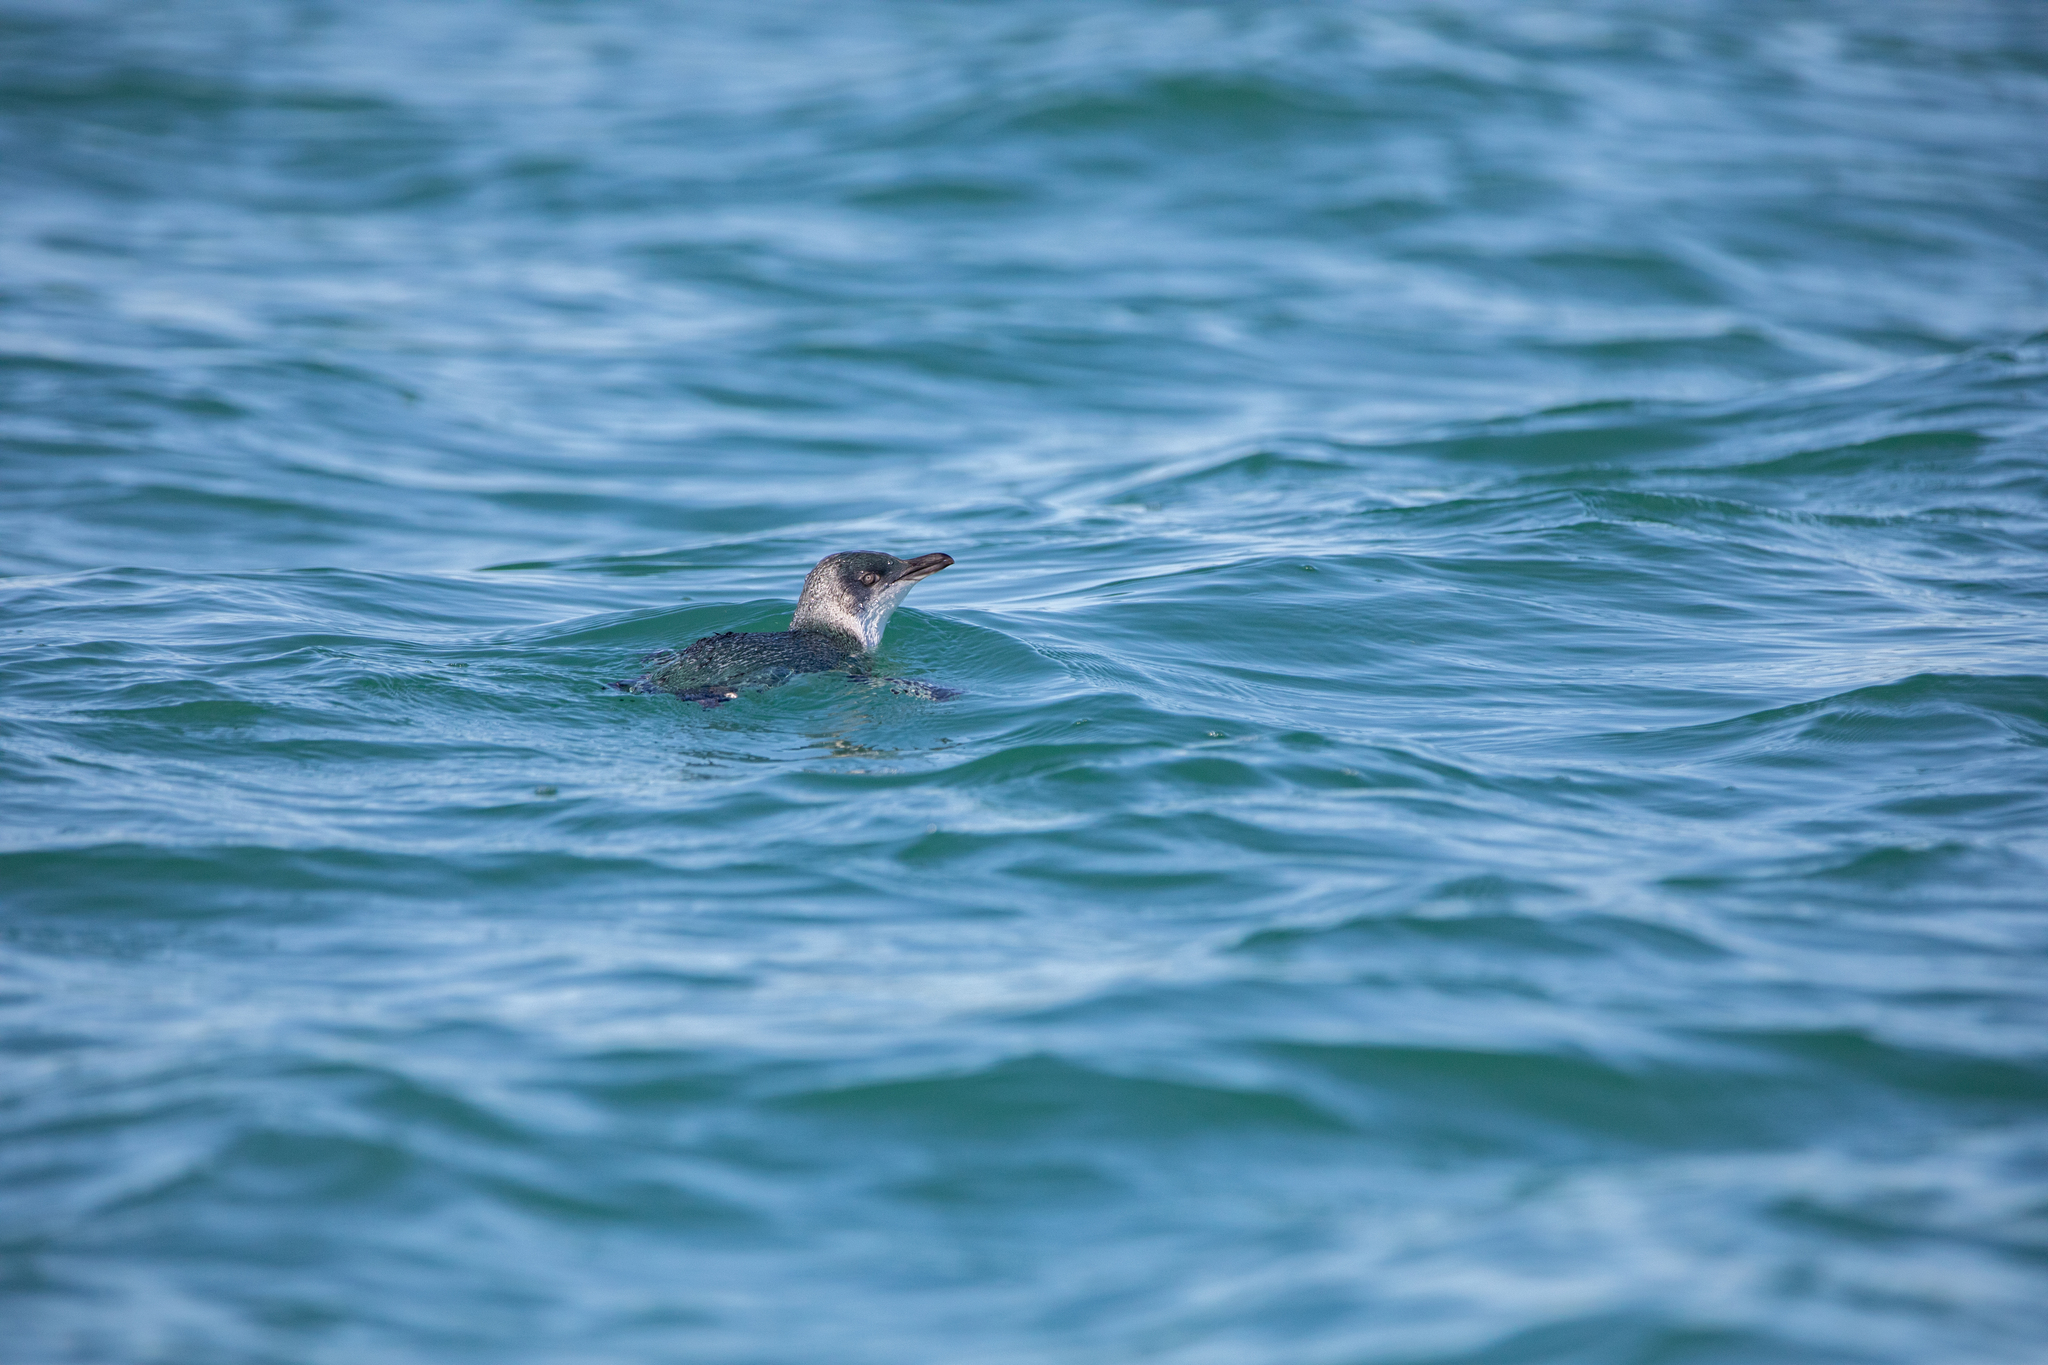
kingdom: Animalia
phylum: Chordata
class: Aves
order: Sphenisciformes
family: Spheniscidae
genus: Eudyptula
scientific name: Eudyptula minor
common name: Little penguin
